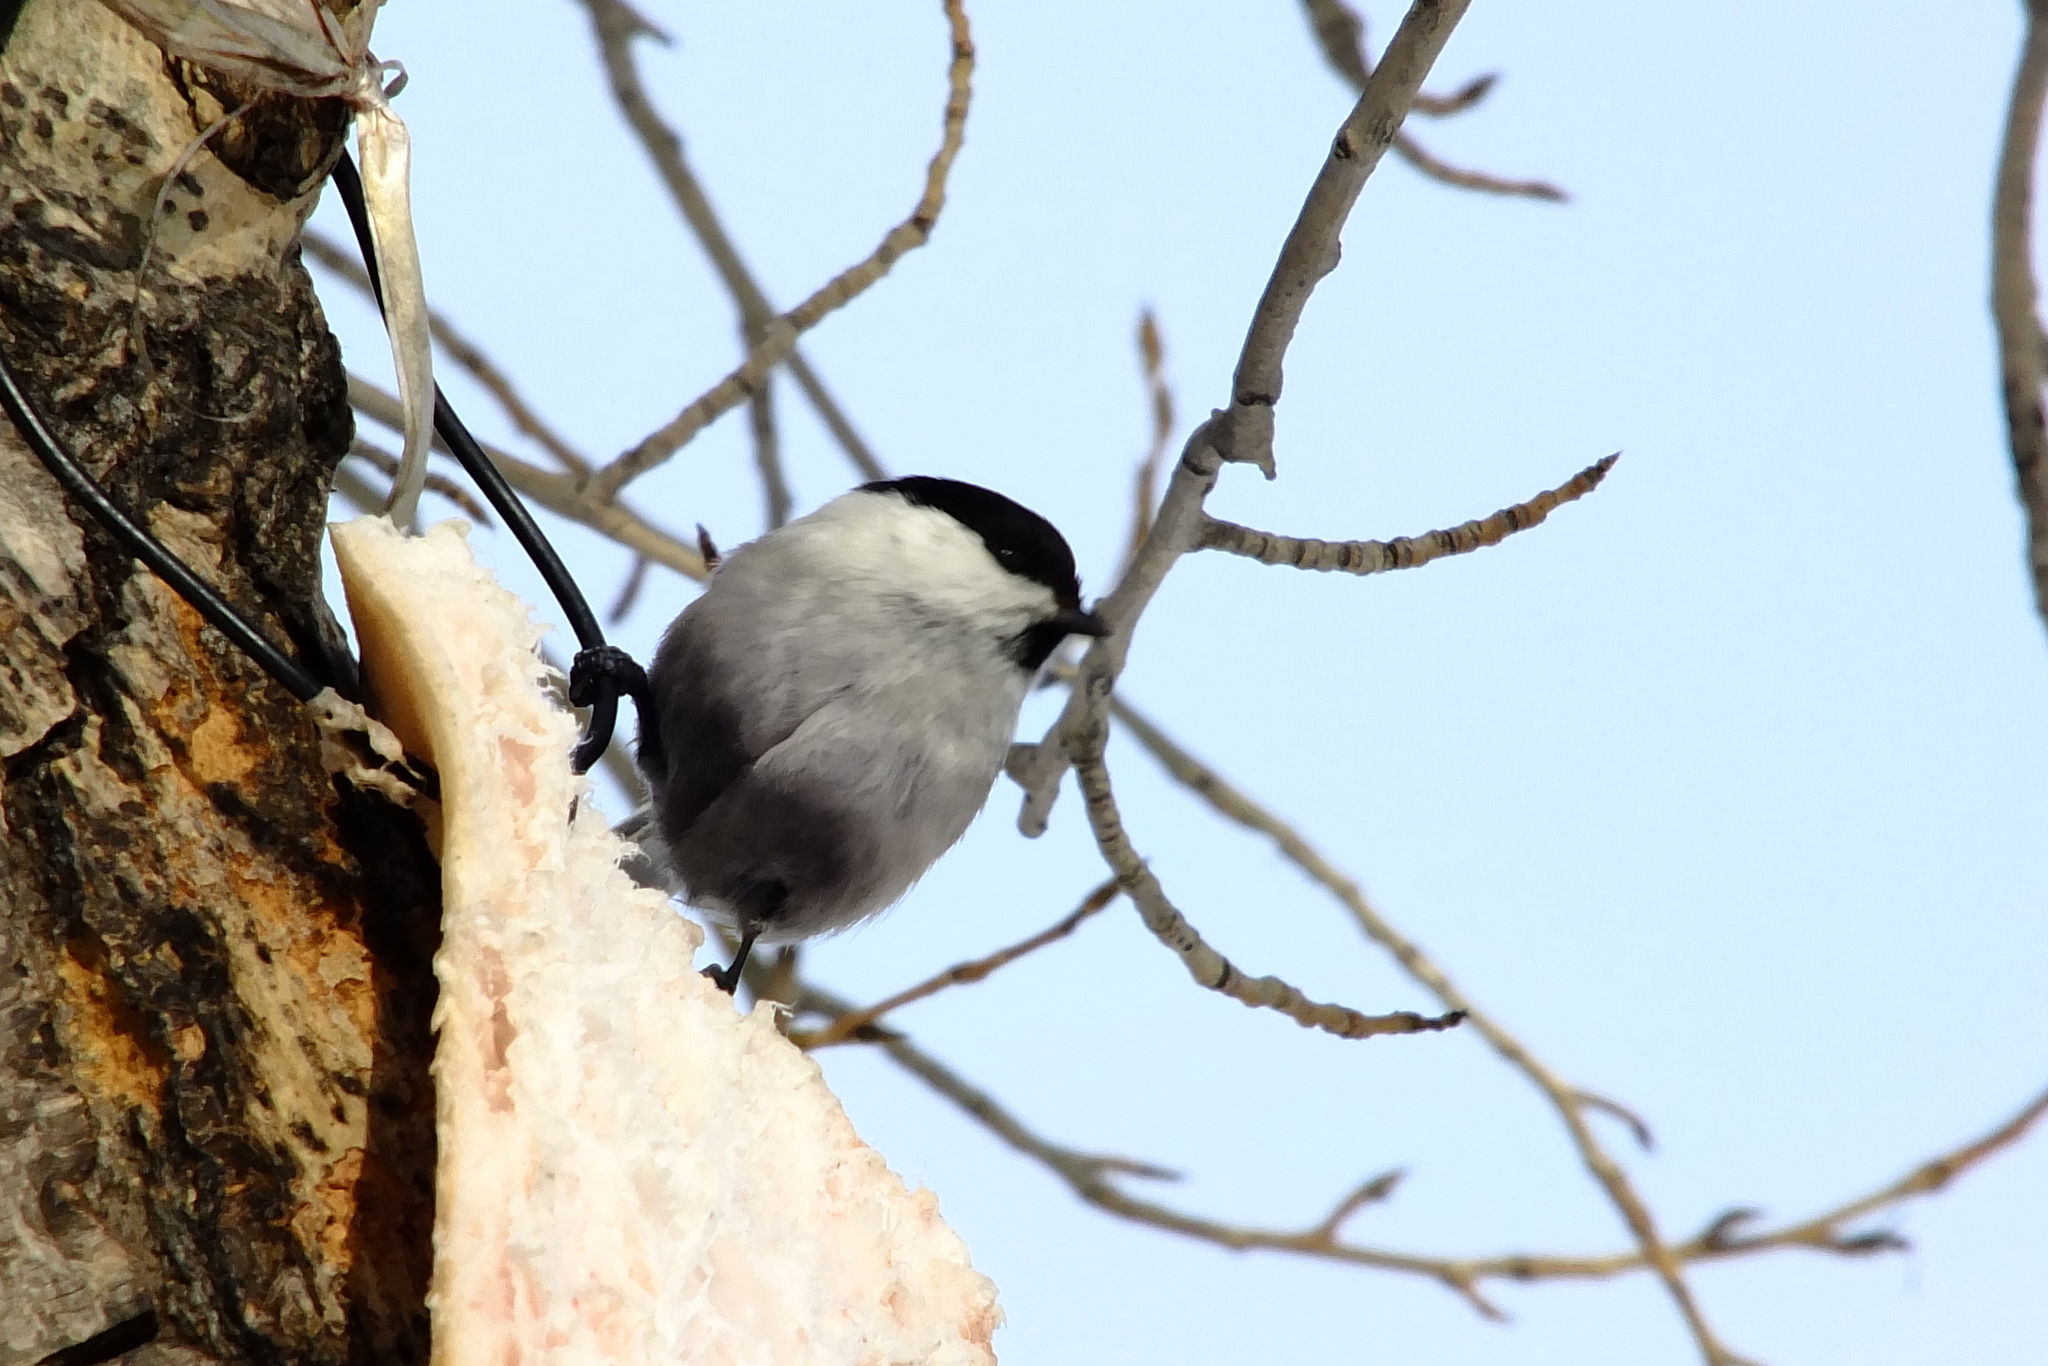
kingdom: Animalia
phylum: Chordata
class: Aves
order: Passeriformes
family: Paridae
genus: Poecile
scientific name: Poecile montanus
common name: Willow tit
